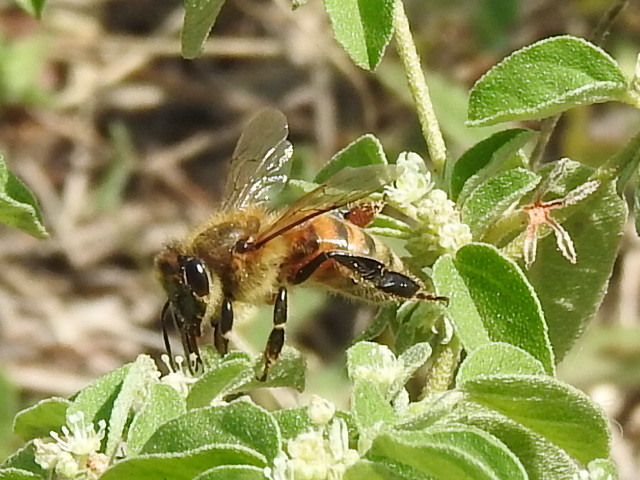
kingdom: Animalia
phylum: Arthropoda
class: Insecta
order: Hymenoptera
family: Apidae
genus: Apis
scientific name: Apis mellifera
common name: Honey bee
